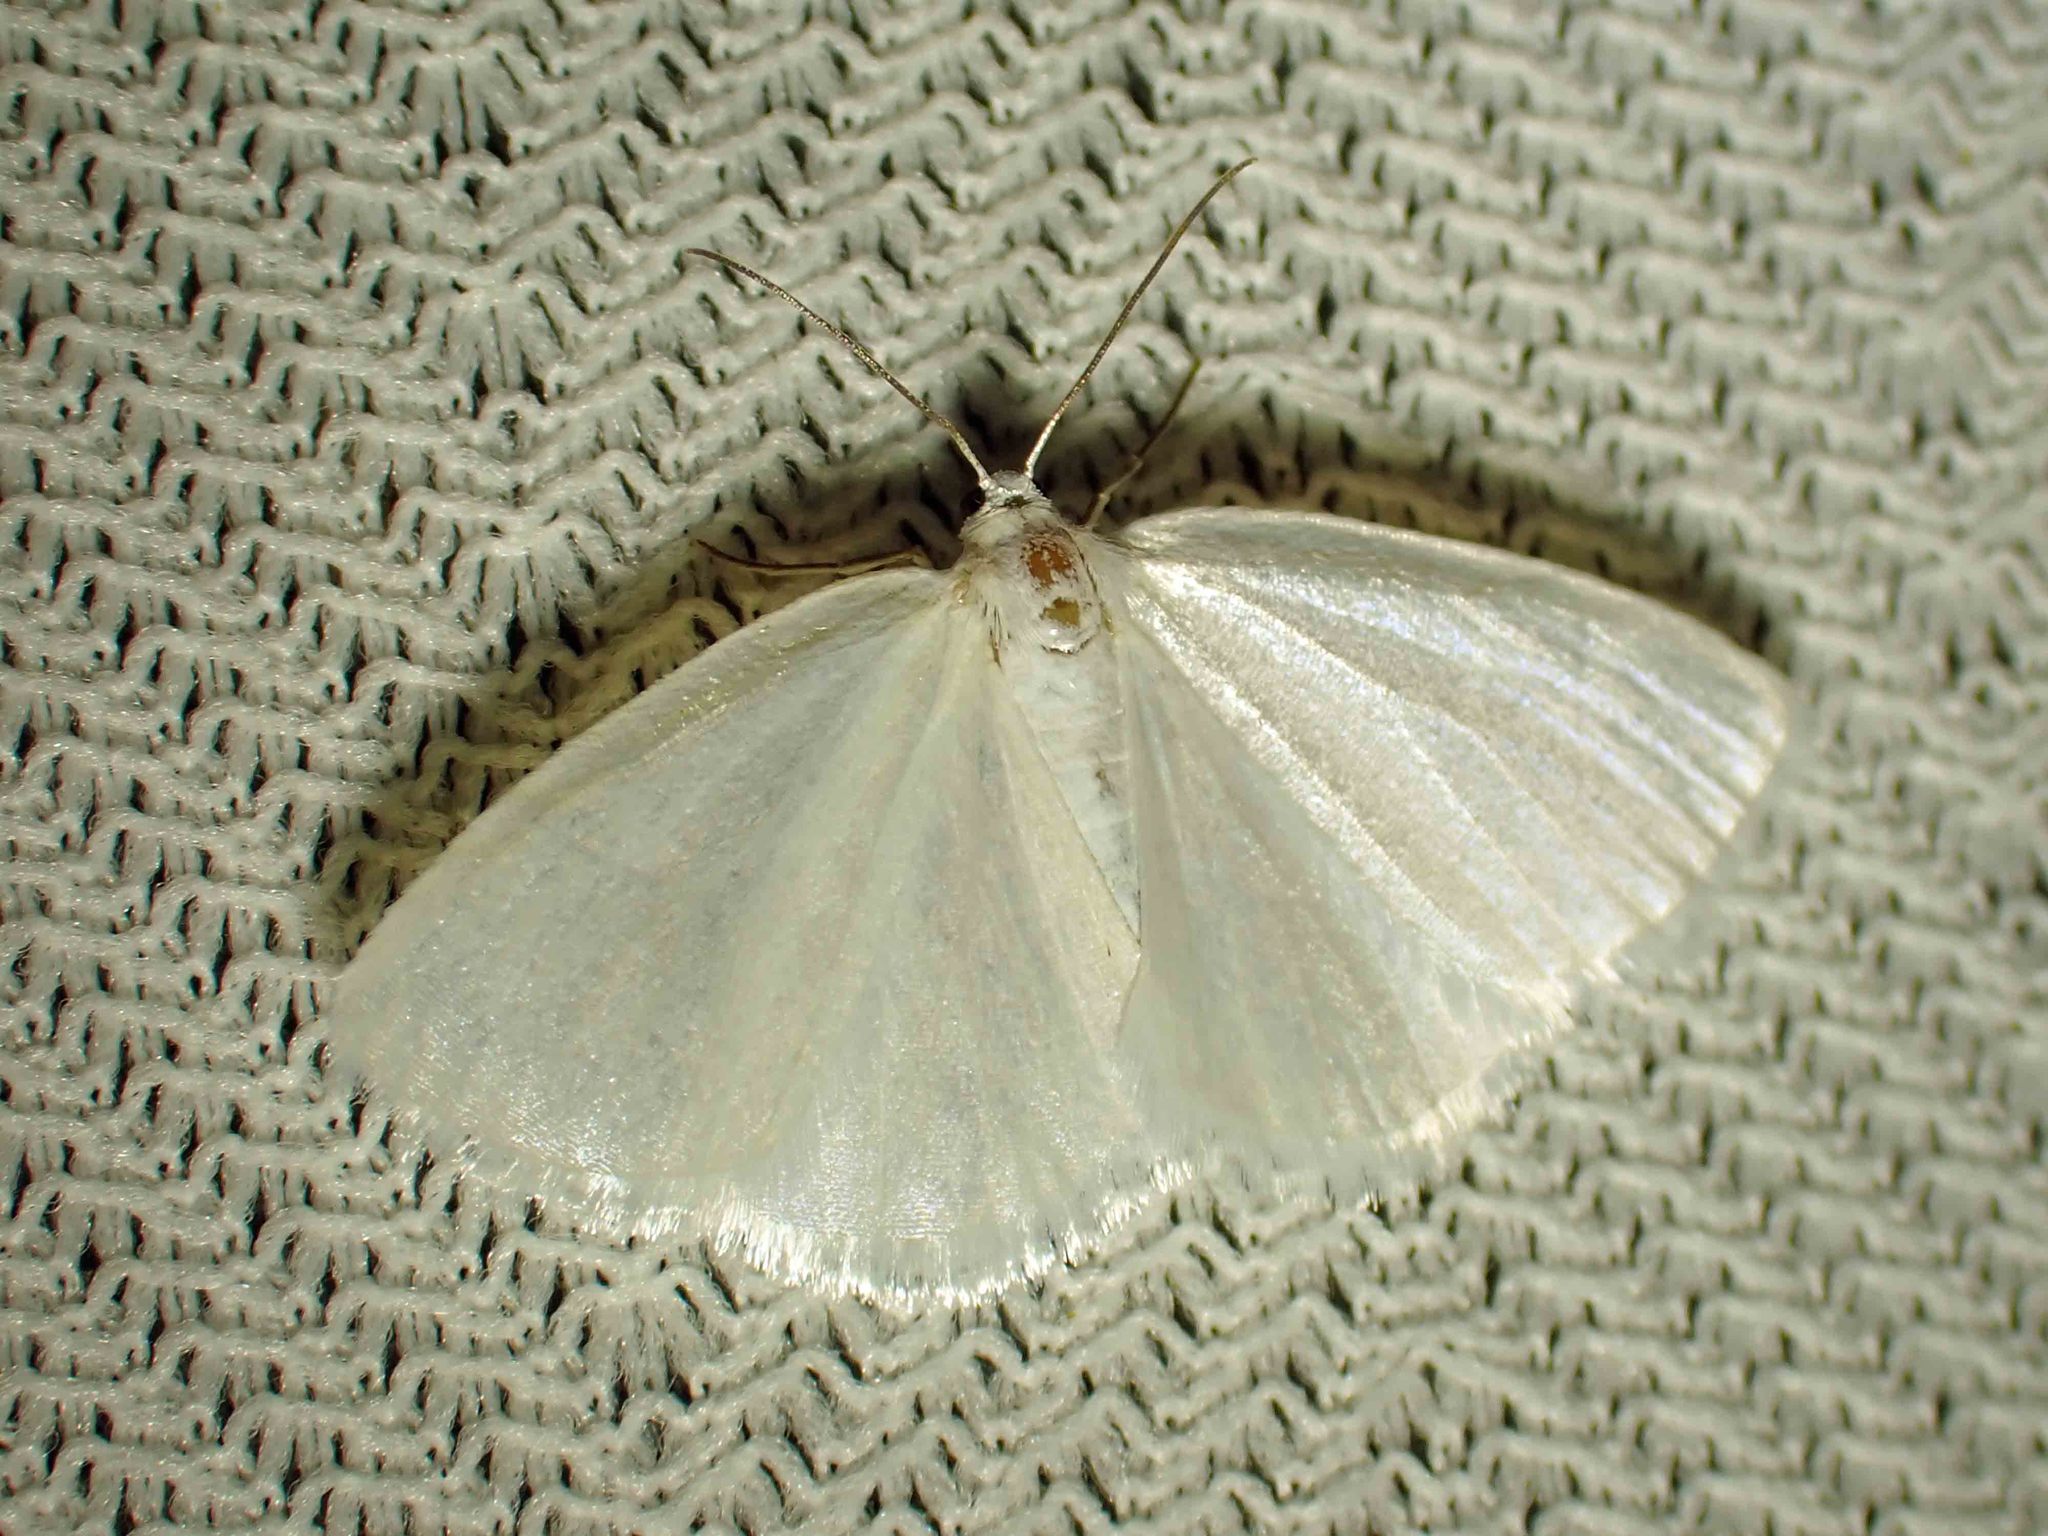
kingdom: Animalia
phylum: Arthropoda
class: Insecta
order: Lepidoptera
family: Geometridae
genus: Lomographa
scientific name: Lomographa vestaliata
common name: White spring moth
